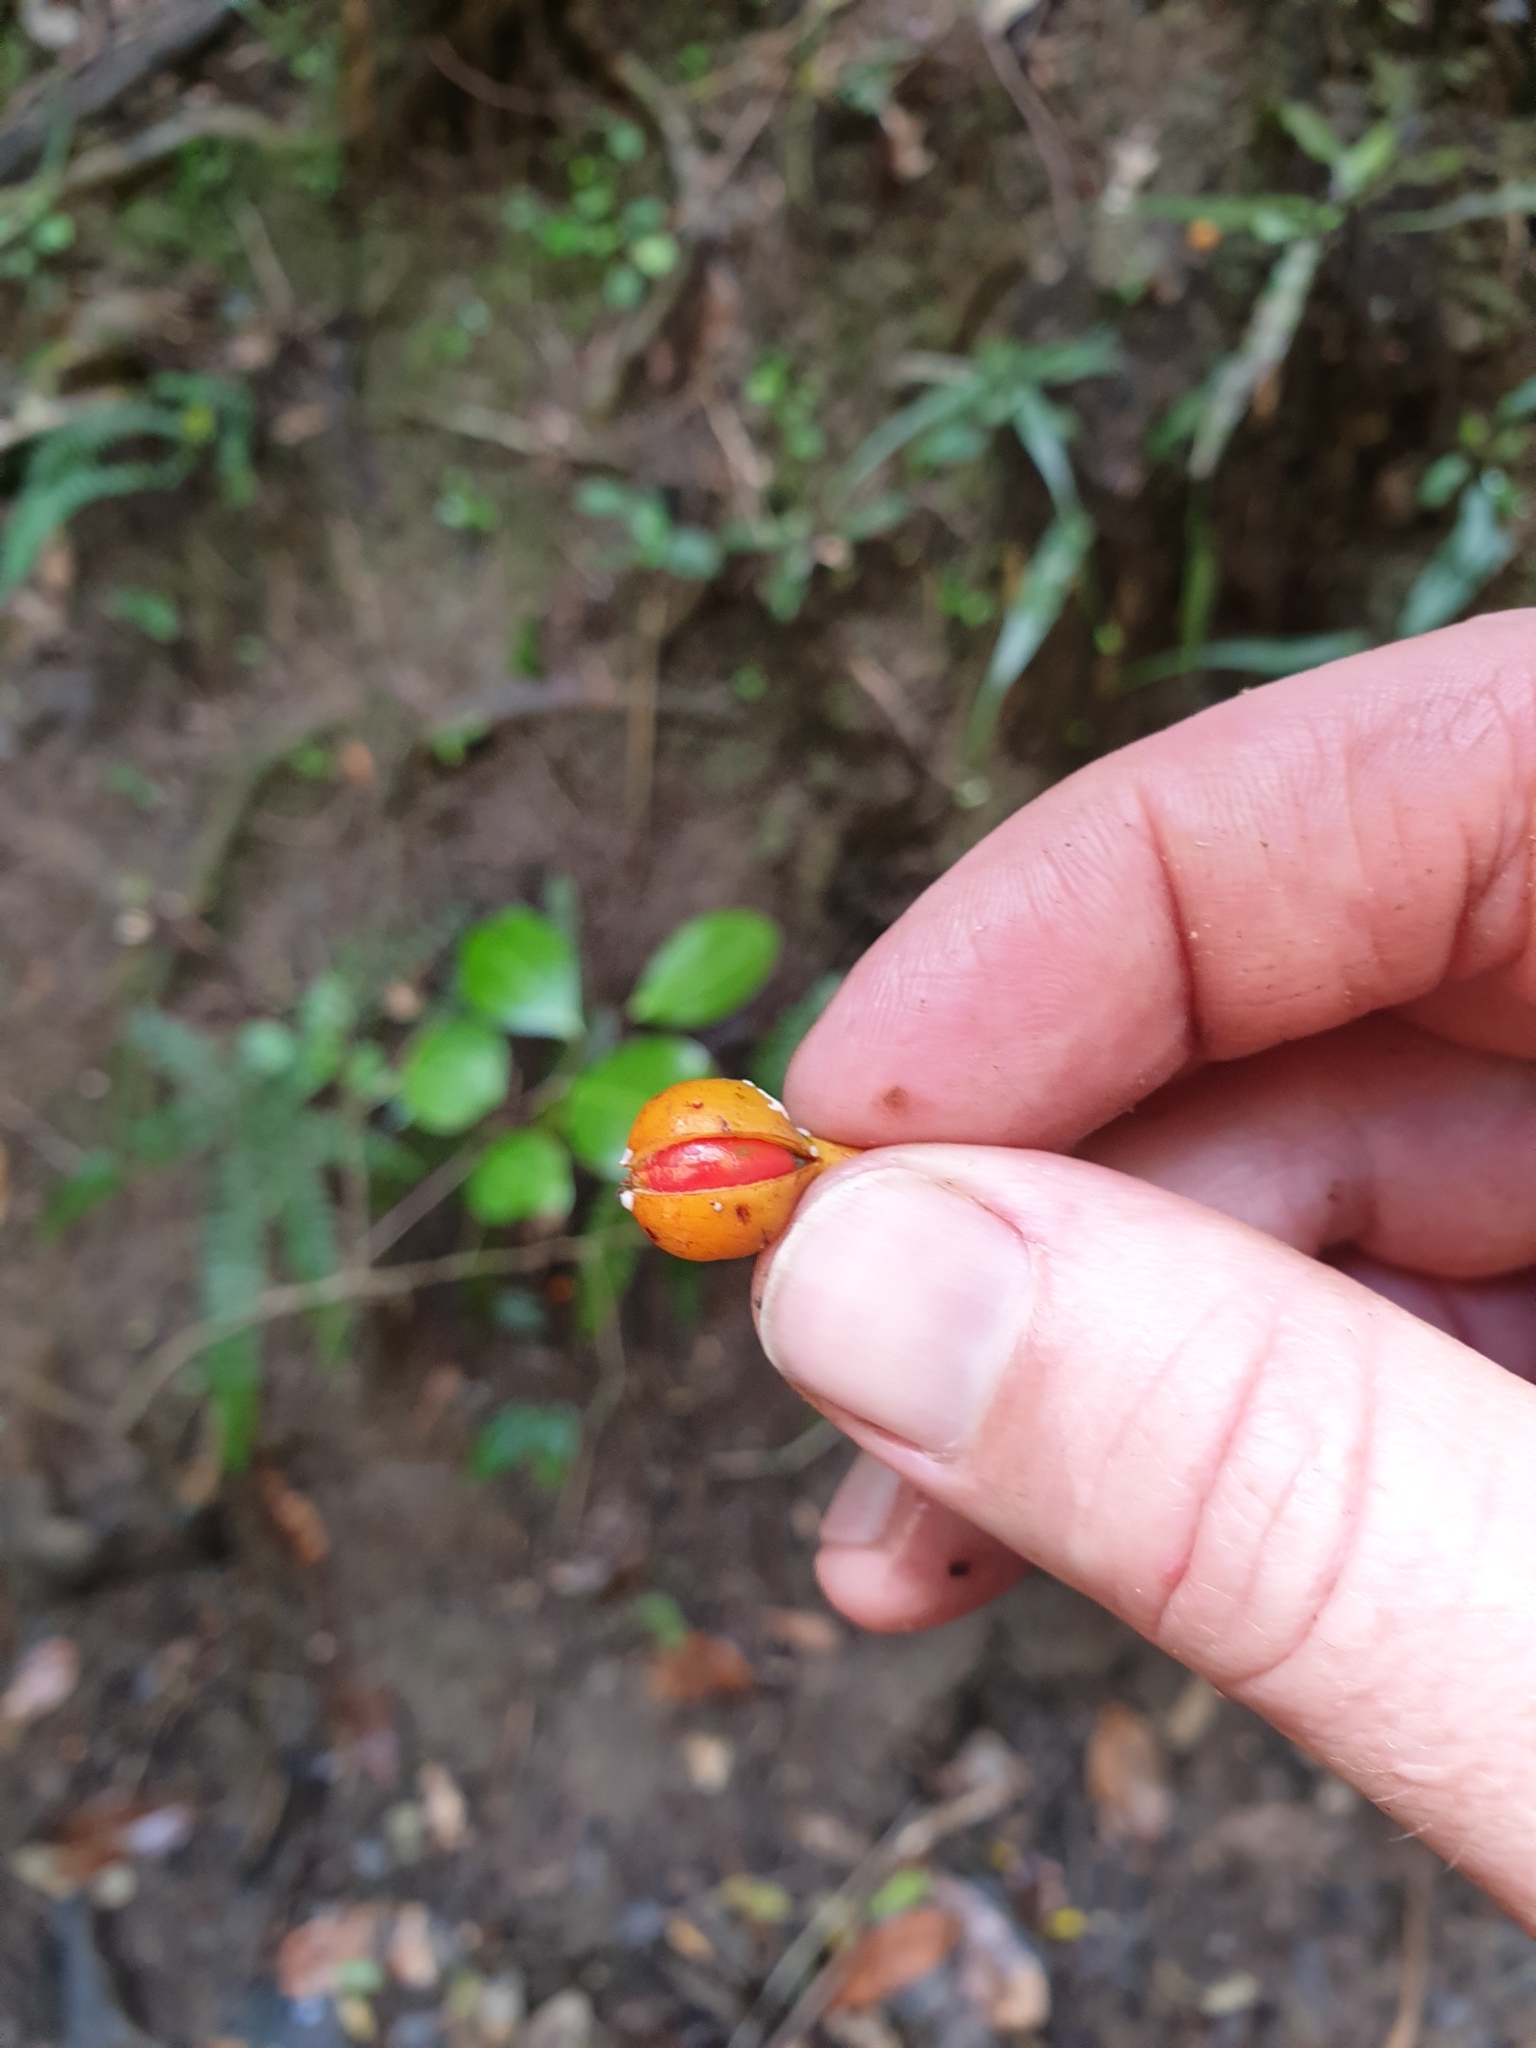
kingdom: Plantae
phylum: Tracheophyta
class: Magnoliopsida
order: Sapindales
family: Sapindaceae
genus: Mischocarpus
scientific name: Mischocarpus pyriformis
